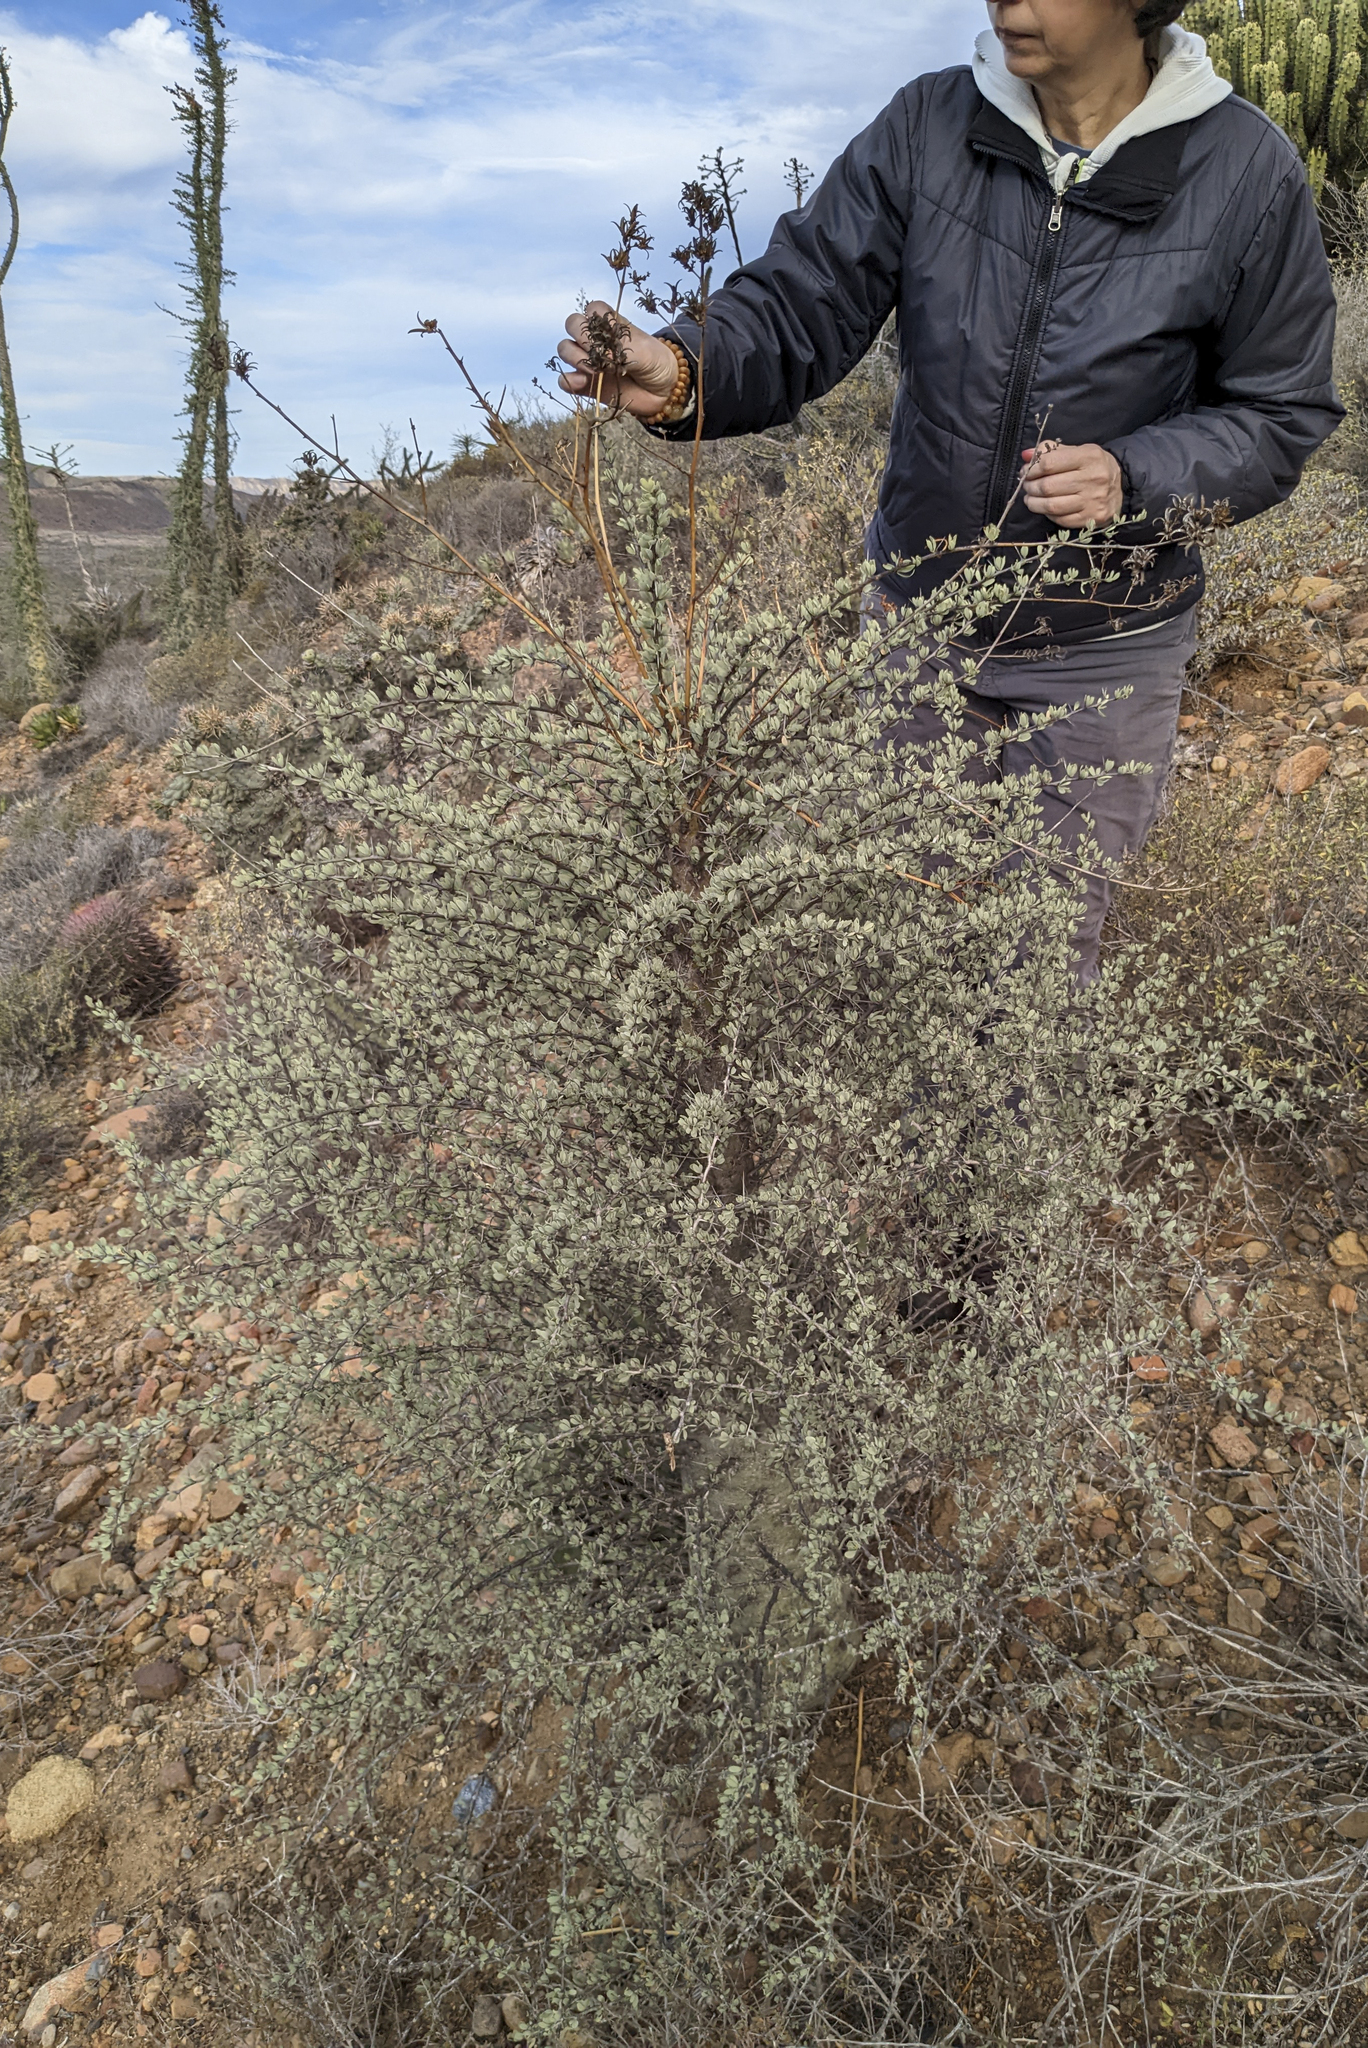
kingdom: Plantae
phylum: Tracheophyta
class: Magnoliopsida
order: Ericales
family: Fouquieriaceae
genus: Fouquieria
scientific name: Fouquieria columnaris
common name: Boojumtree
